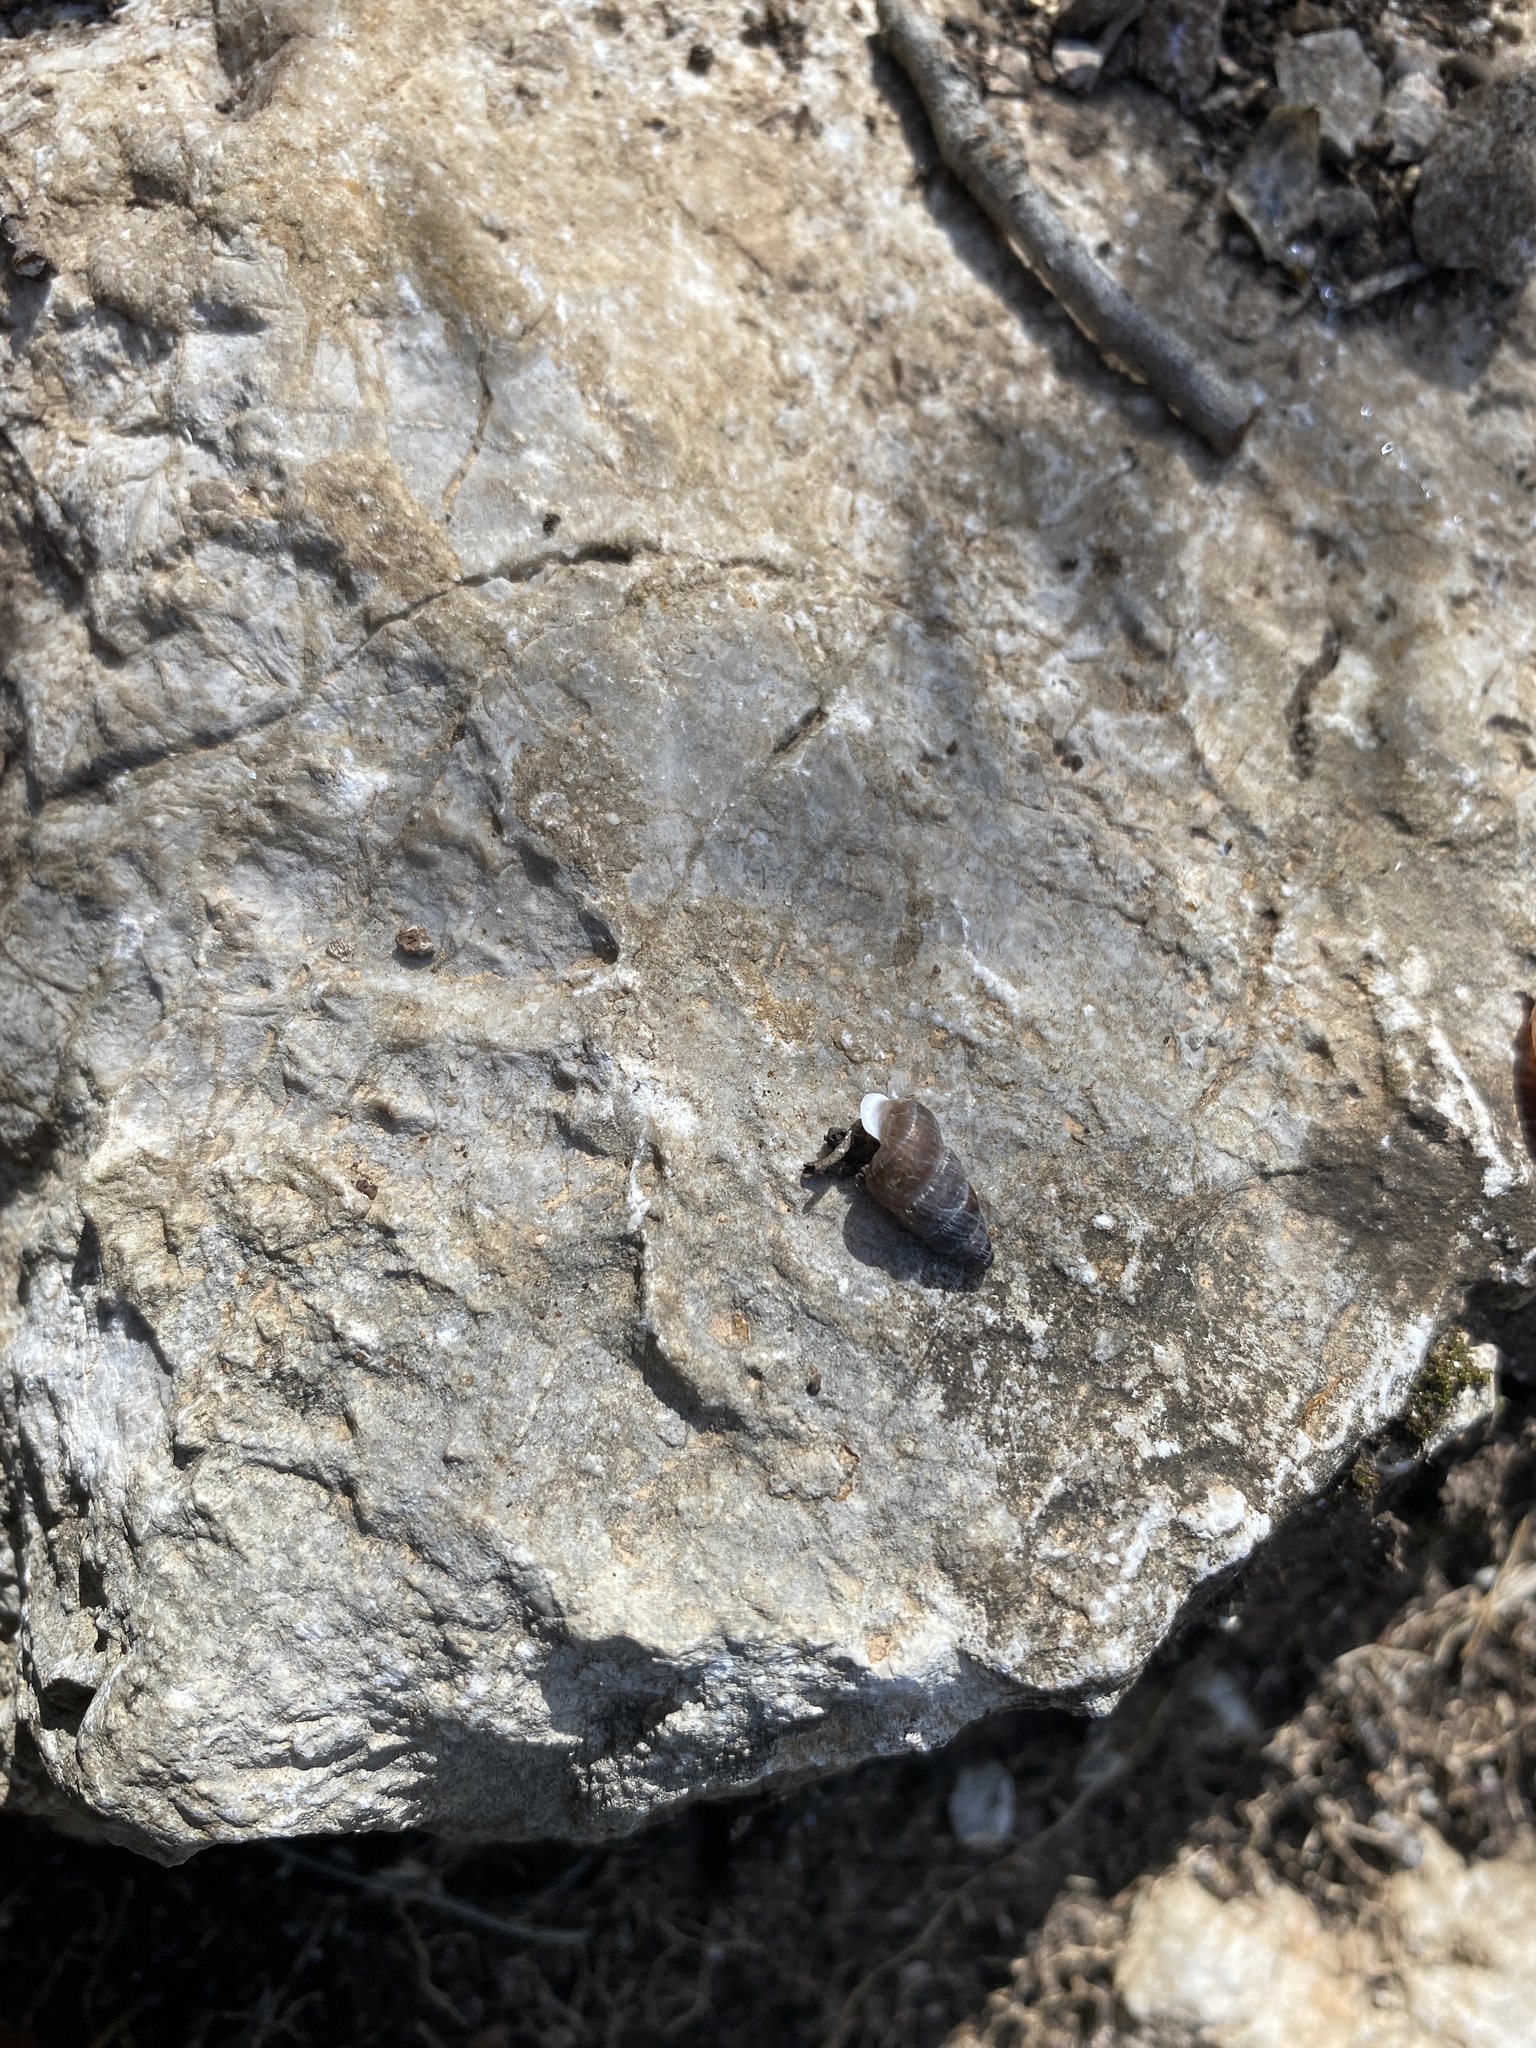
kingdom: Animalia
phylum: Mollusca
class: Gastropoda
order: Architaenioglossa
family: Cochlostomatidae
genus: Obscurella
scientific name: Obscurella martorelli
